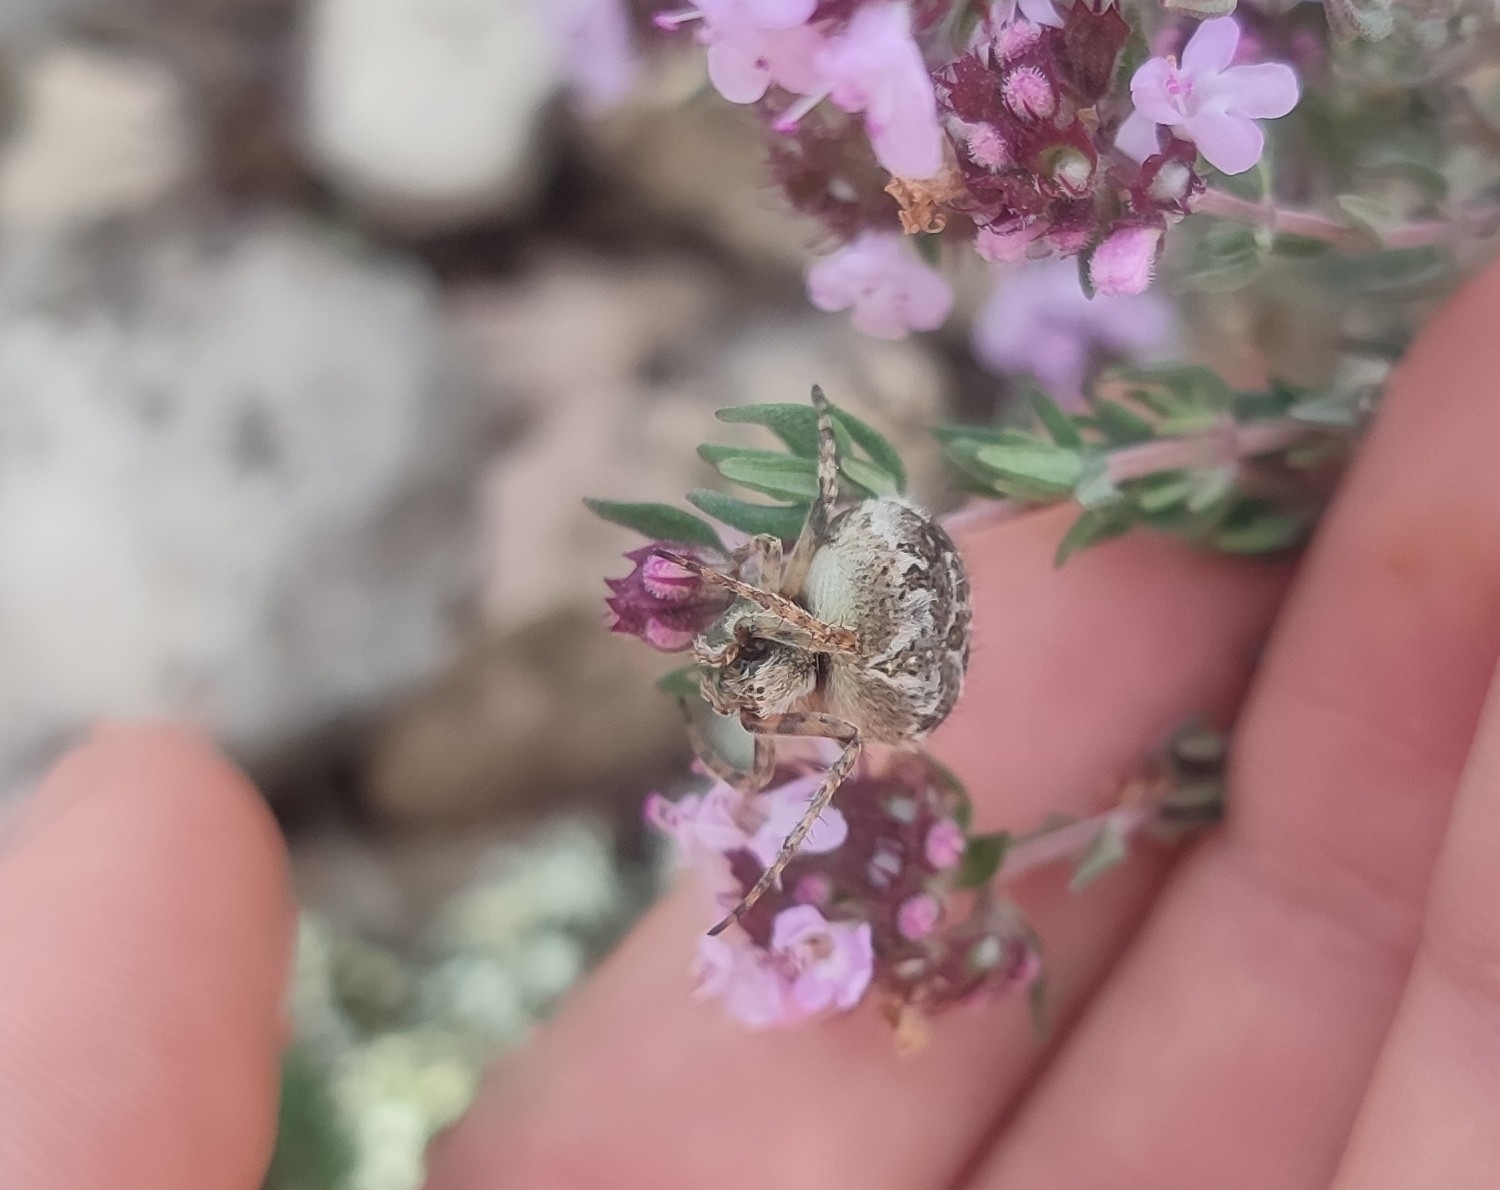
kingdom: Animalia
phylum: Arthropoda
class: Arachnida
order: Araneae
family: Araneidae
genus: Agalenatea
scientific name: Agalenatea redii
